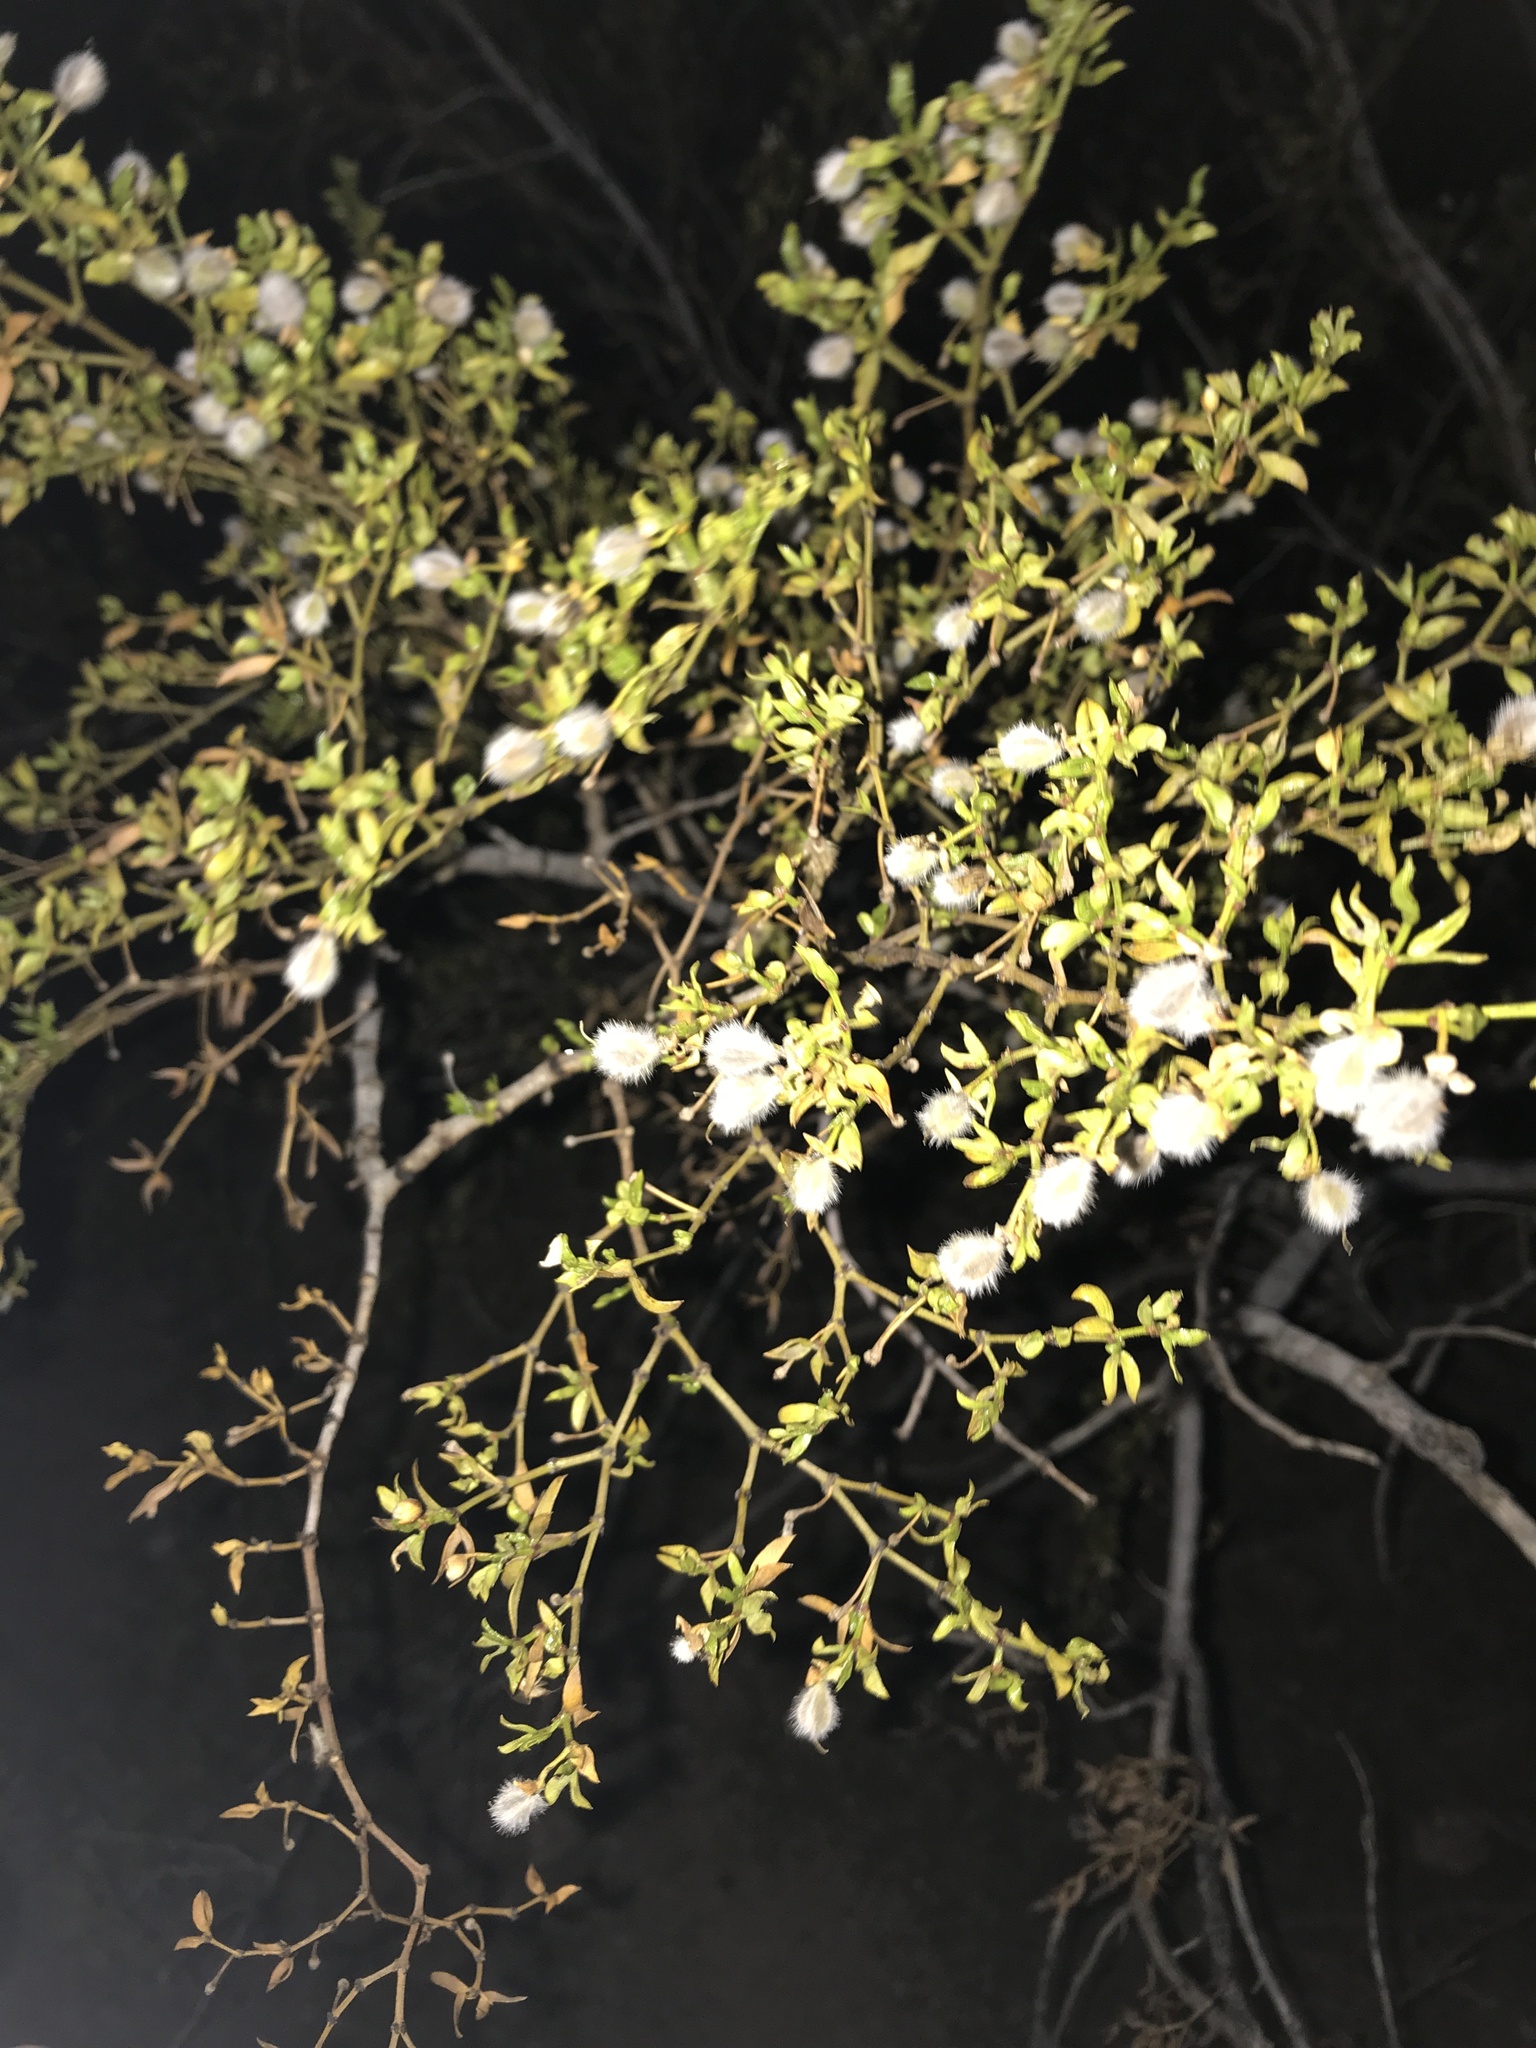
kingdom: Plantae
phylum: Tracheophyta
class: Magnoliopsida
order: Zygophyllales
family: Zygophyllaceae
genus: Larrea
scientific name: Larrea tridentata
